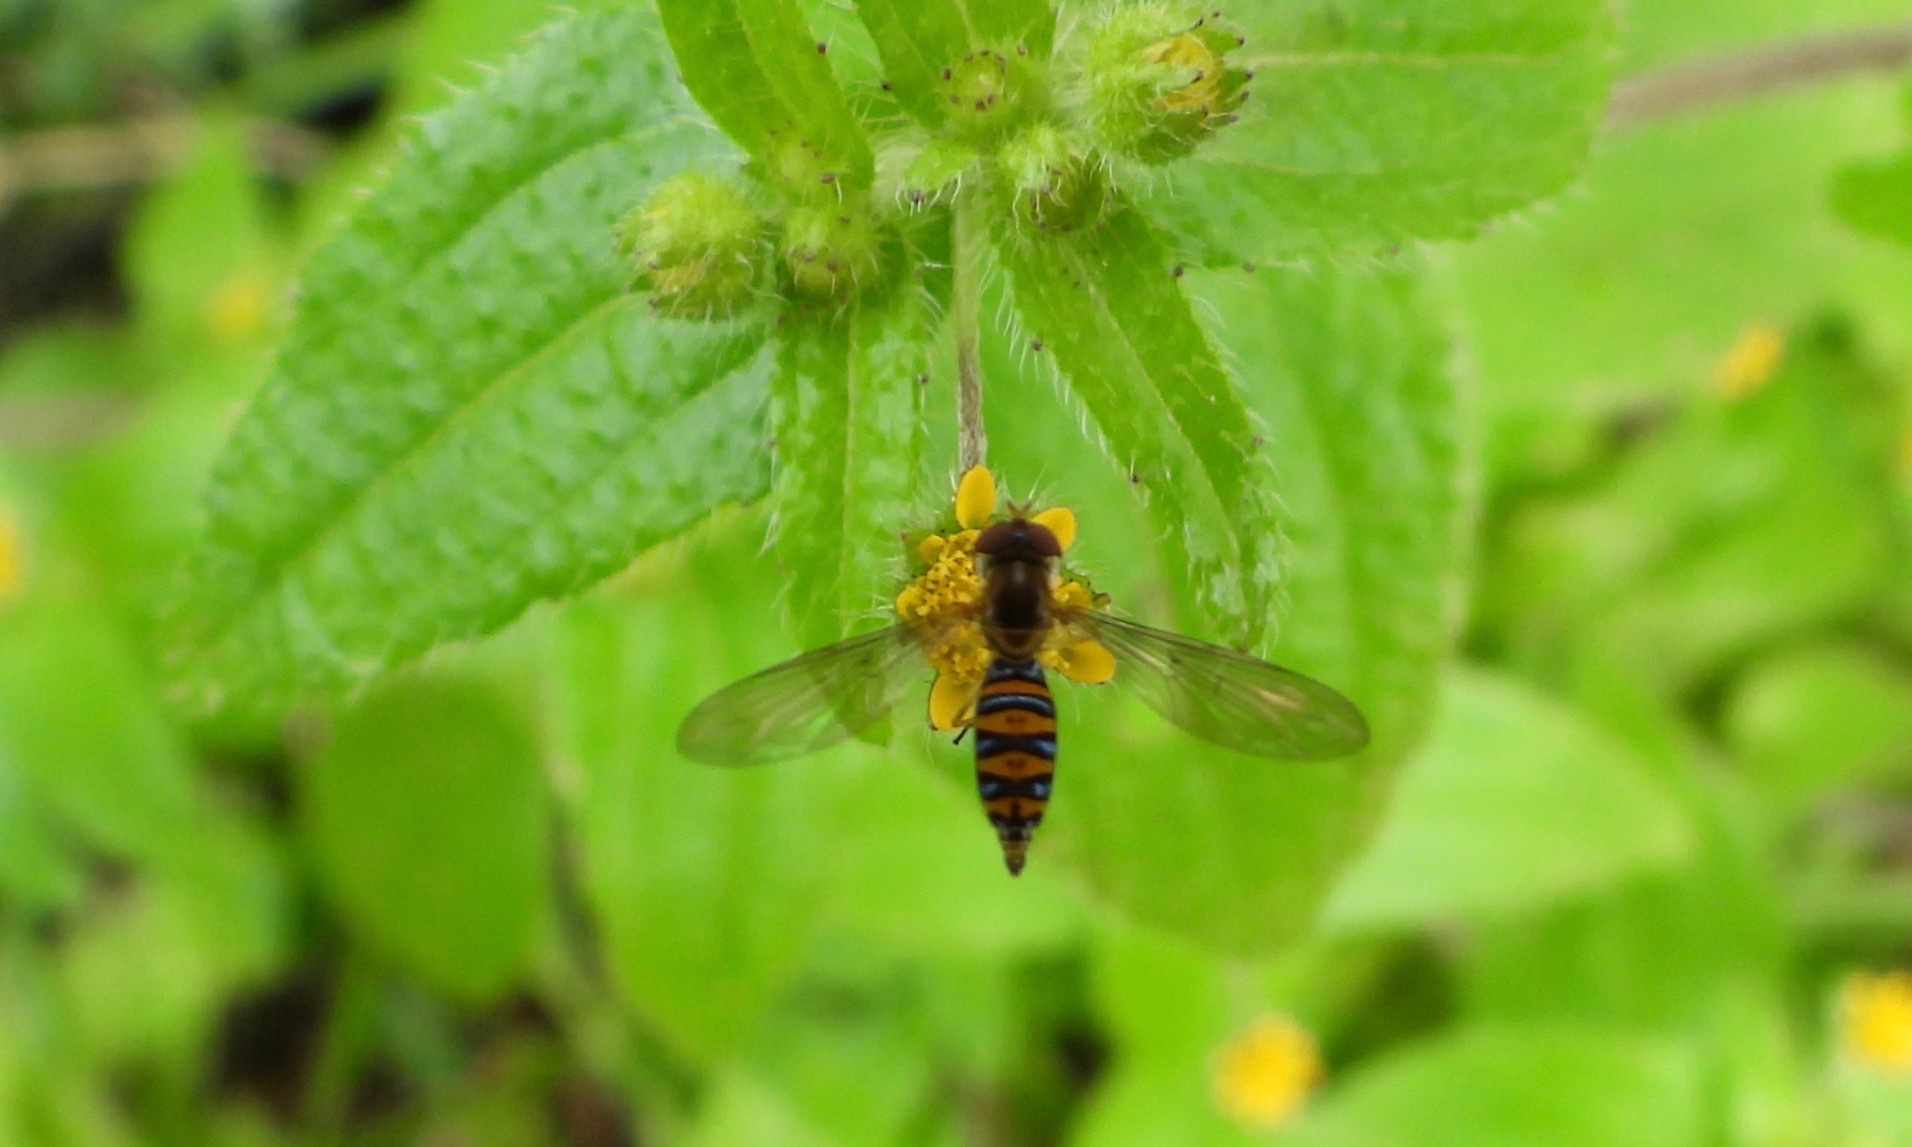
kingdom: Animalia
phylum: Arthropoda
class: Insecta
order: Diptera
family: Syrphidae
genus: Toxomerus
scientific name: Toxomerus mutuus
